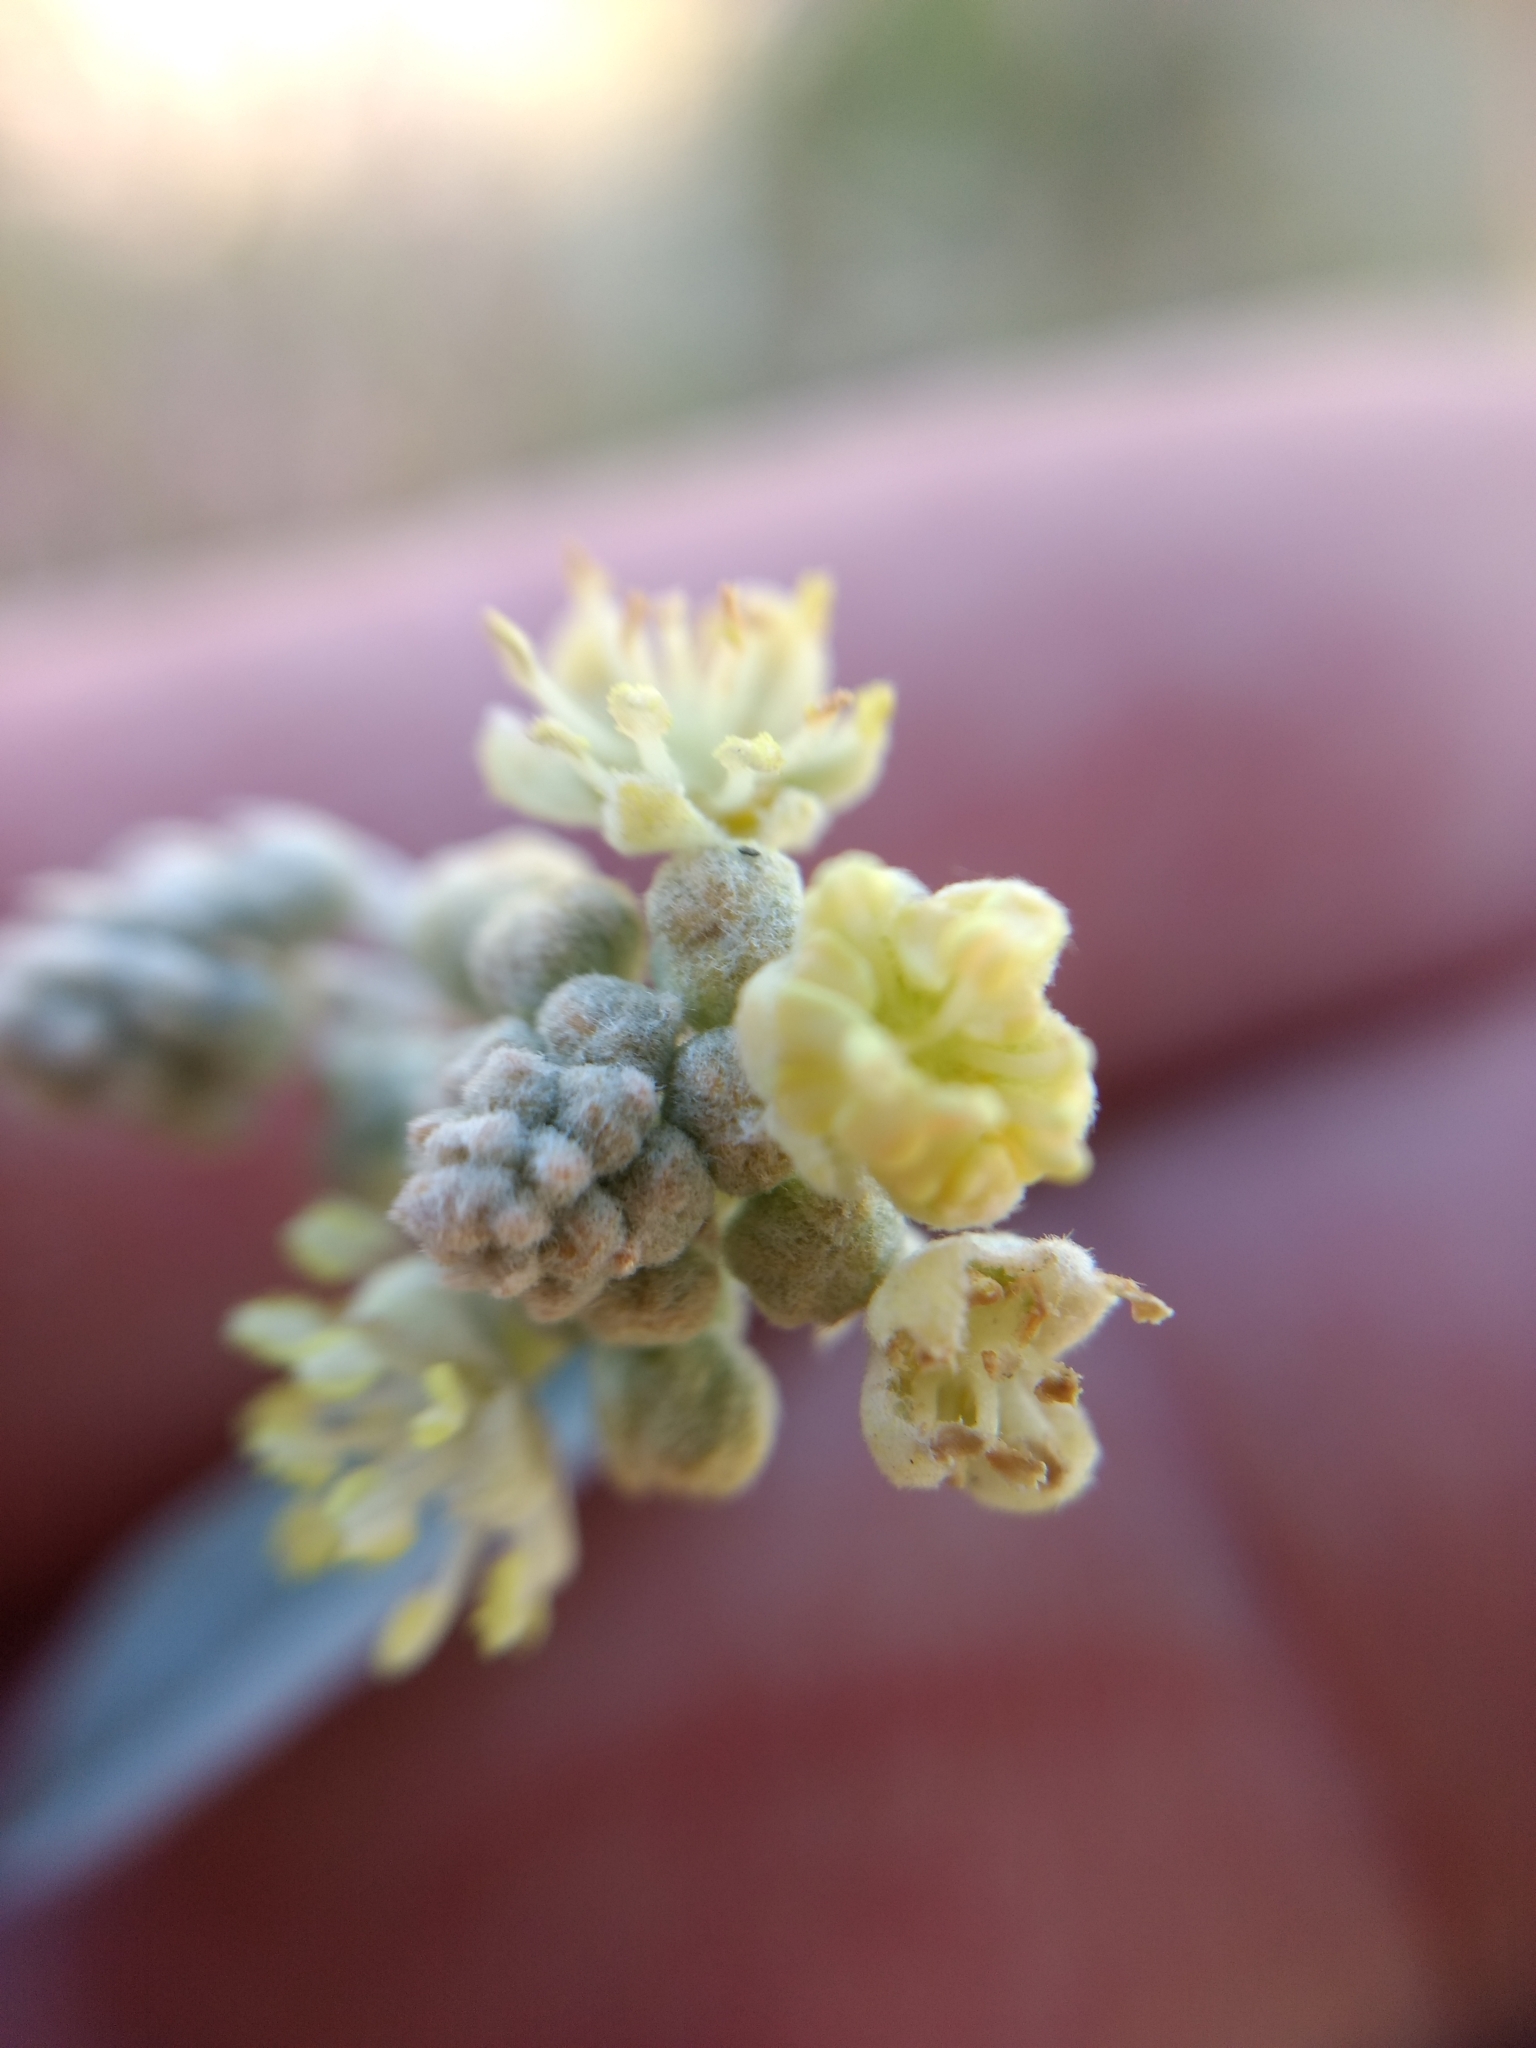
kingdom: Plantae
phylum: Tracheophyta
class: Magnoliopsida
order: Malpighiales
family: Euphorbiaceae
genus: Croton
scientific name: Croton californicus
